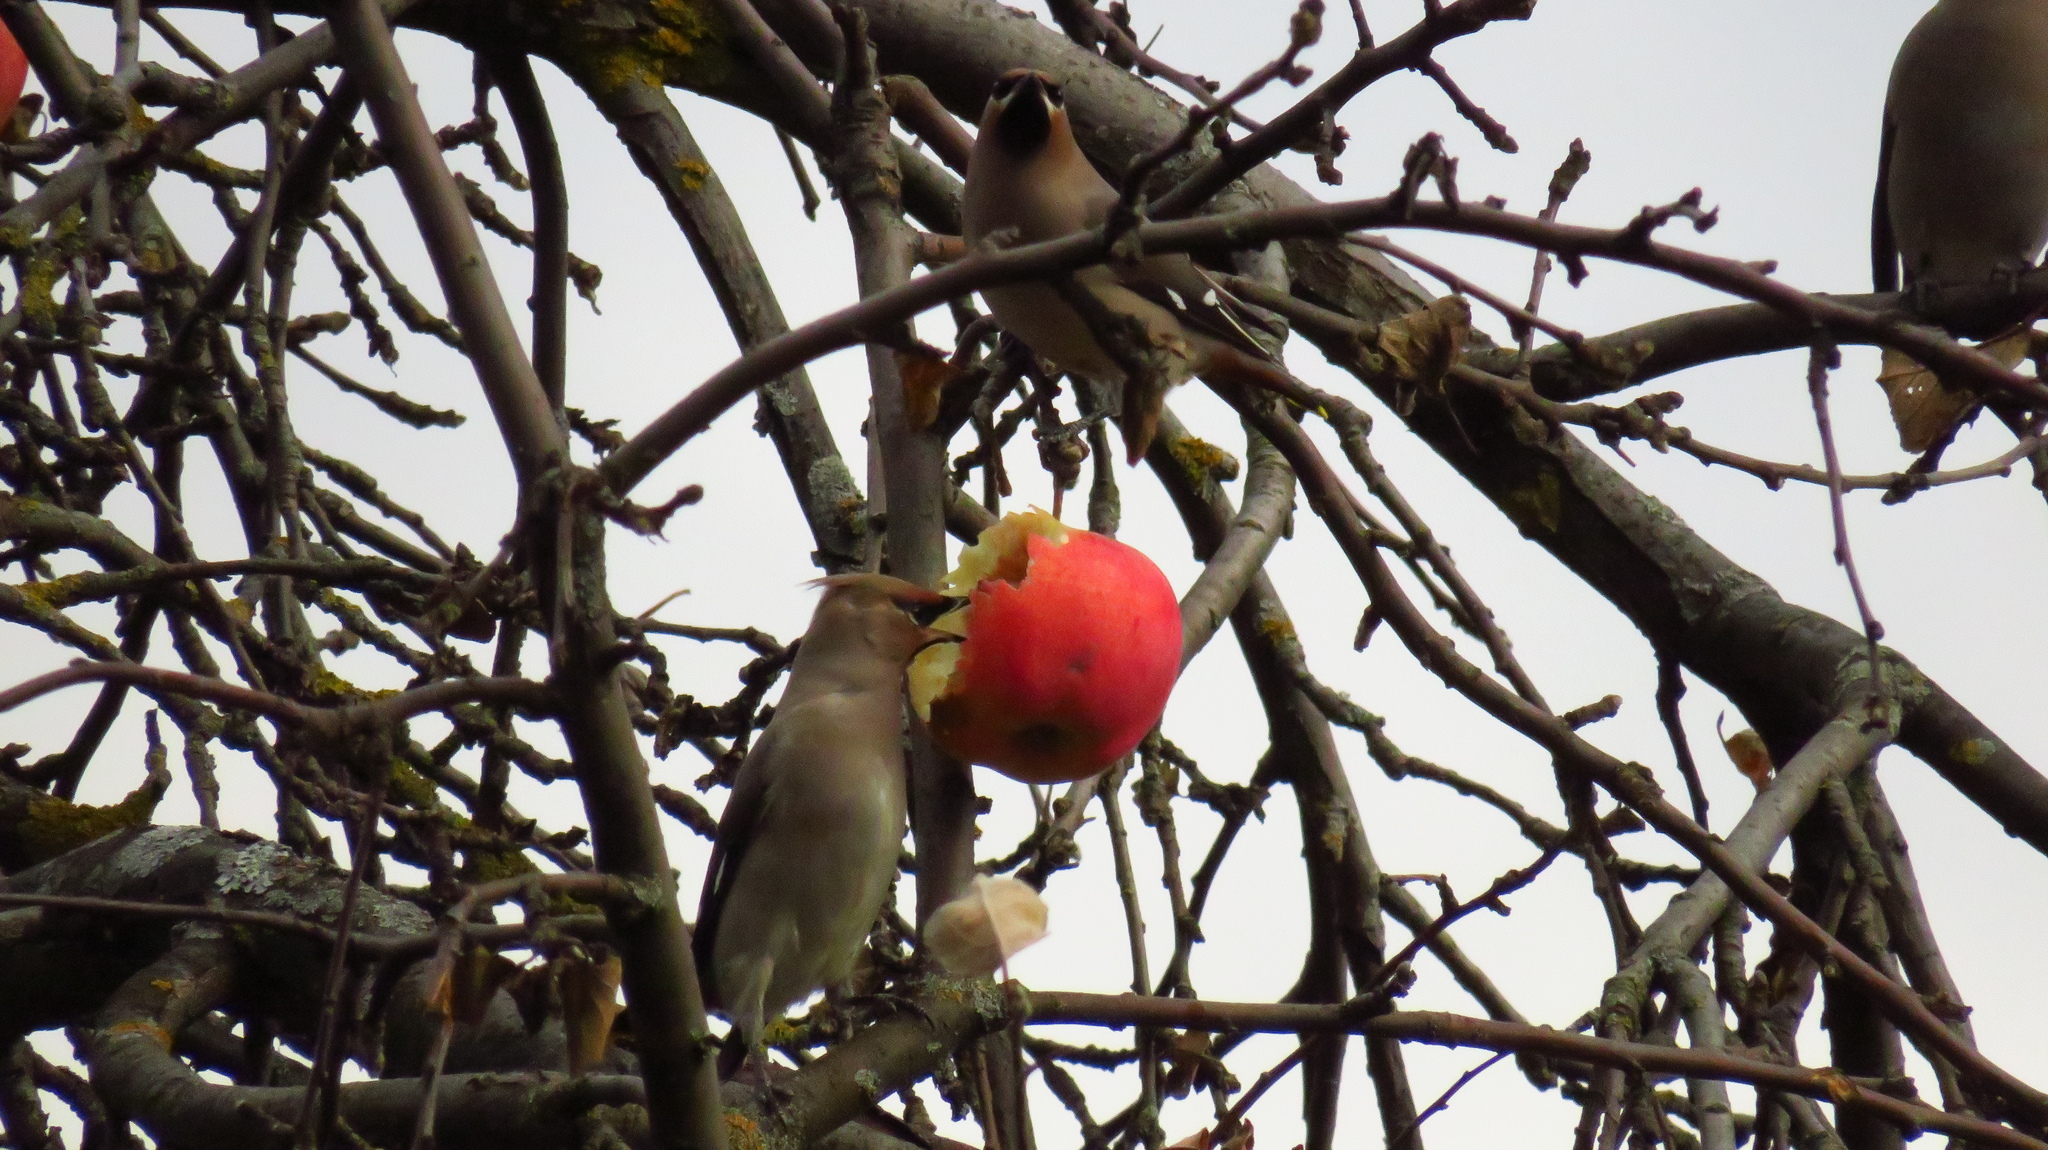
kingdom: Animalia
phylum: Chordata
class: Aves
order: Passeriformes
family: Bombycillidae
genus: Bombycilla
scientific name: Bombycilla garrulus
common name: Bohemian waxwing
